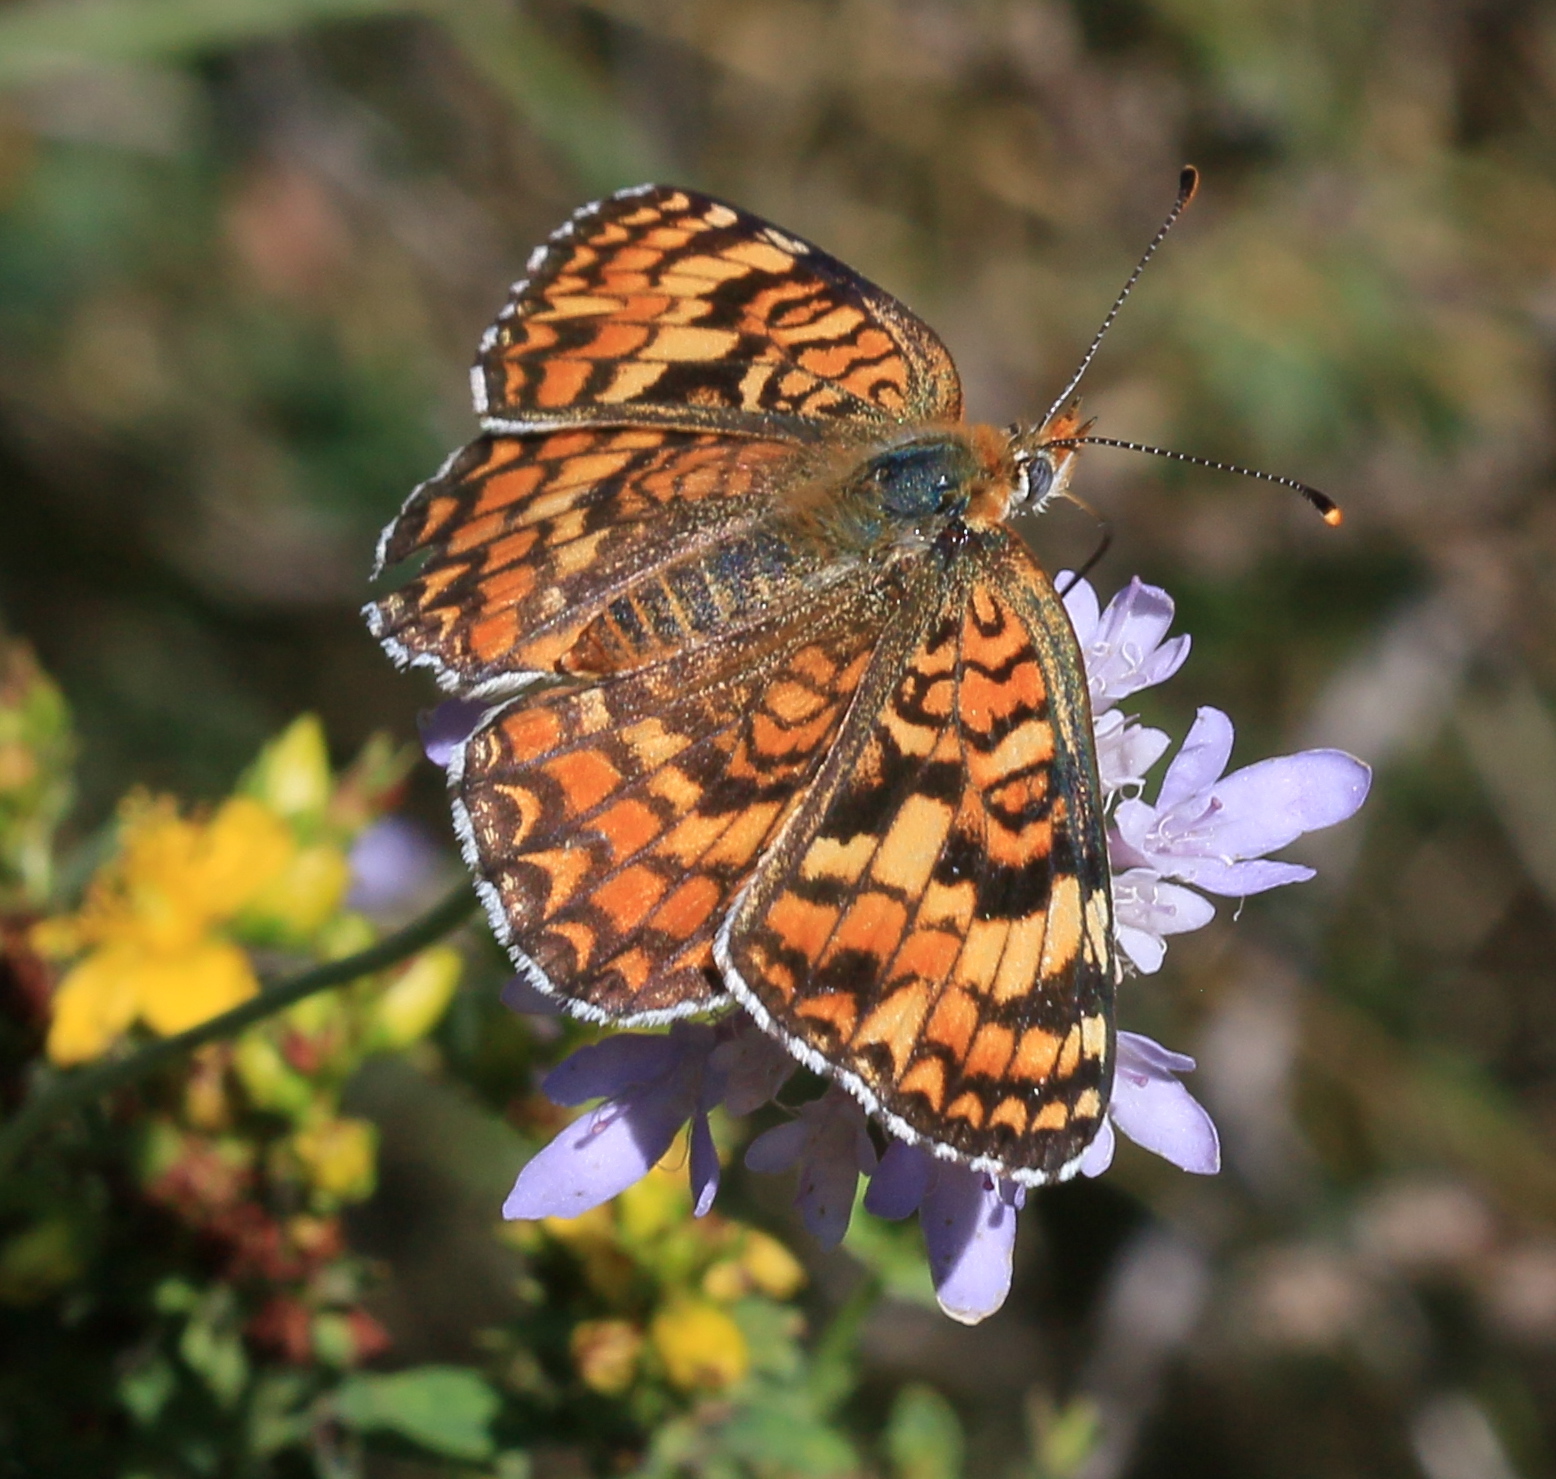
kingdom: Animalia
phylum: Arthropoda
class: Insecta
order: Lepidoptera
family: Nymphalidae
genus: Melitaea
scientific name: Melitaea phoebe
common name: Knapweed fritillary
